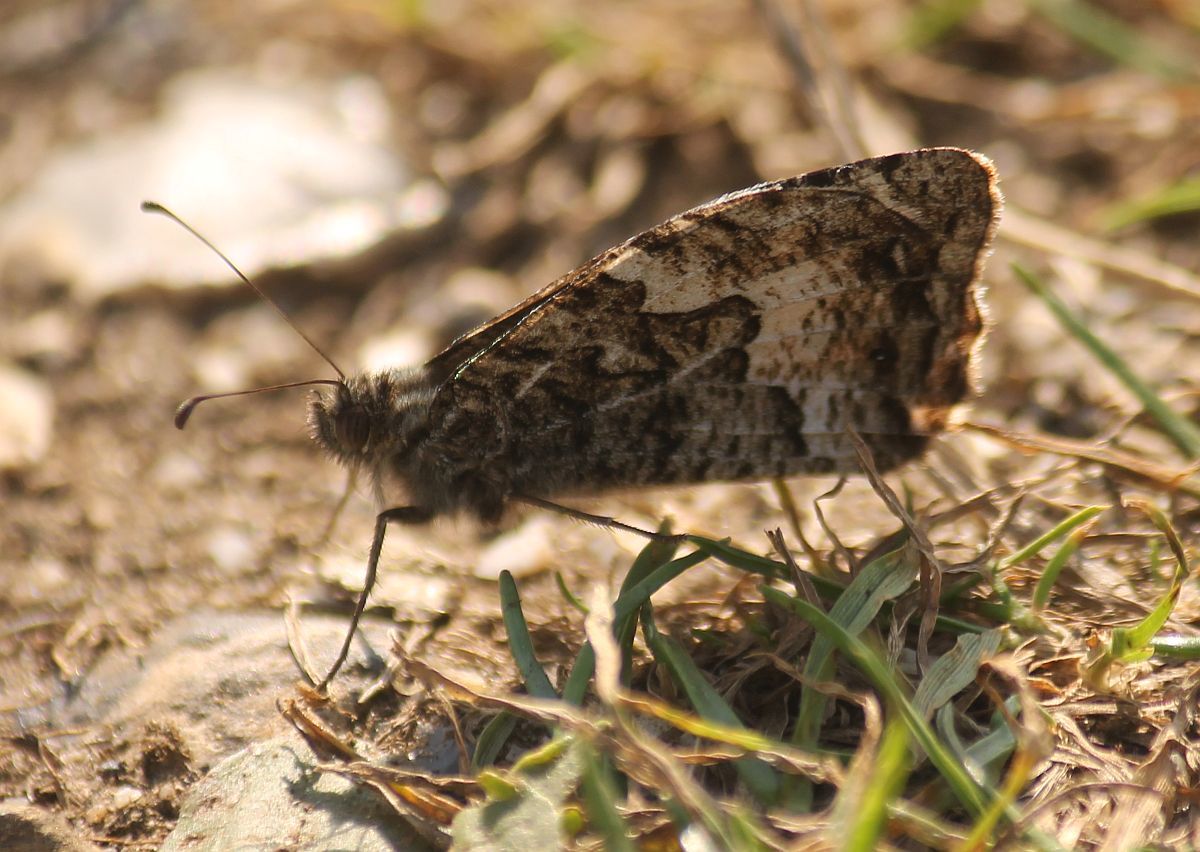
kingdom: Animalia
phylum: Arthropoda
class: Insecta
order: Lepidoptera
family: Nymphalidae
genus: Hipparchia
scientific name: Hipparchia semele
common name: Grayling
